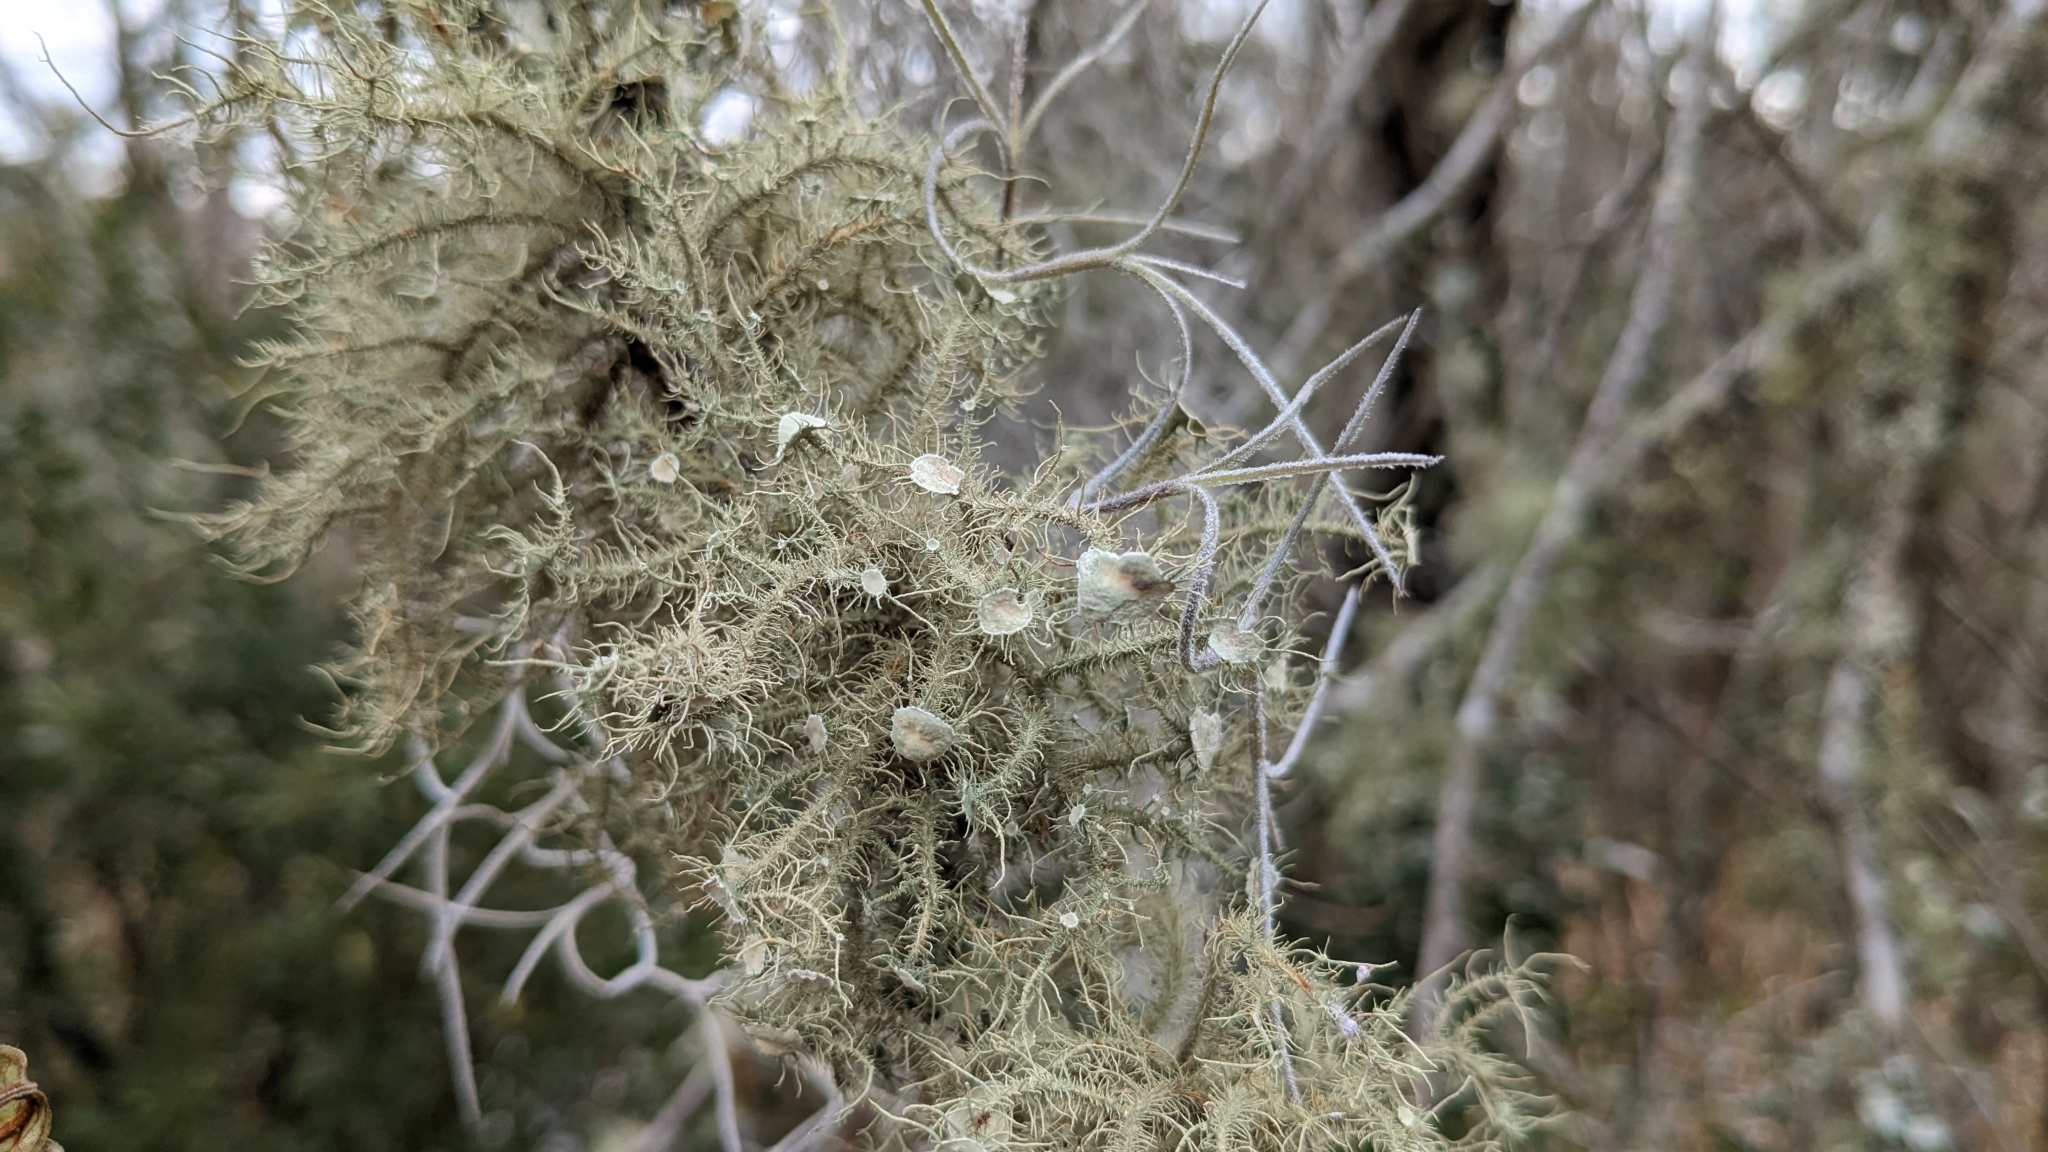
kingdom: Fungi
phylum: Ascomycota
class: Lecanoromycetes
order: Lecanorales
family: Parmeliaceae
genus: Usnea
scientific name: Usnea strigosa
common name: Bushy beard lichen
